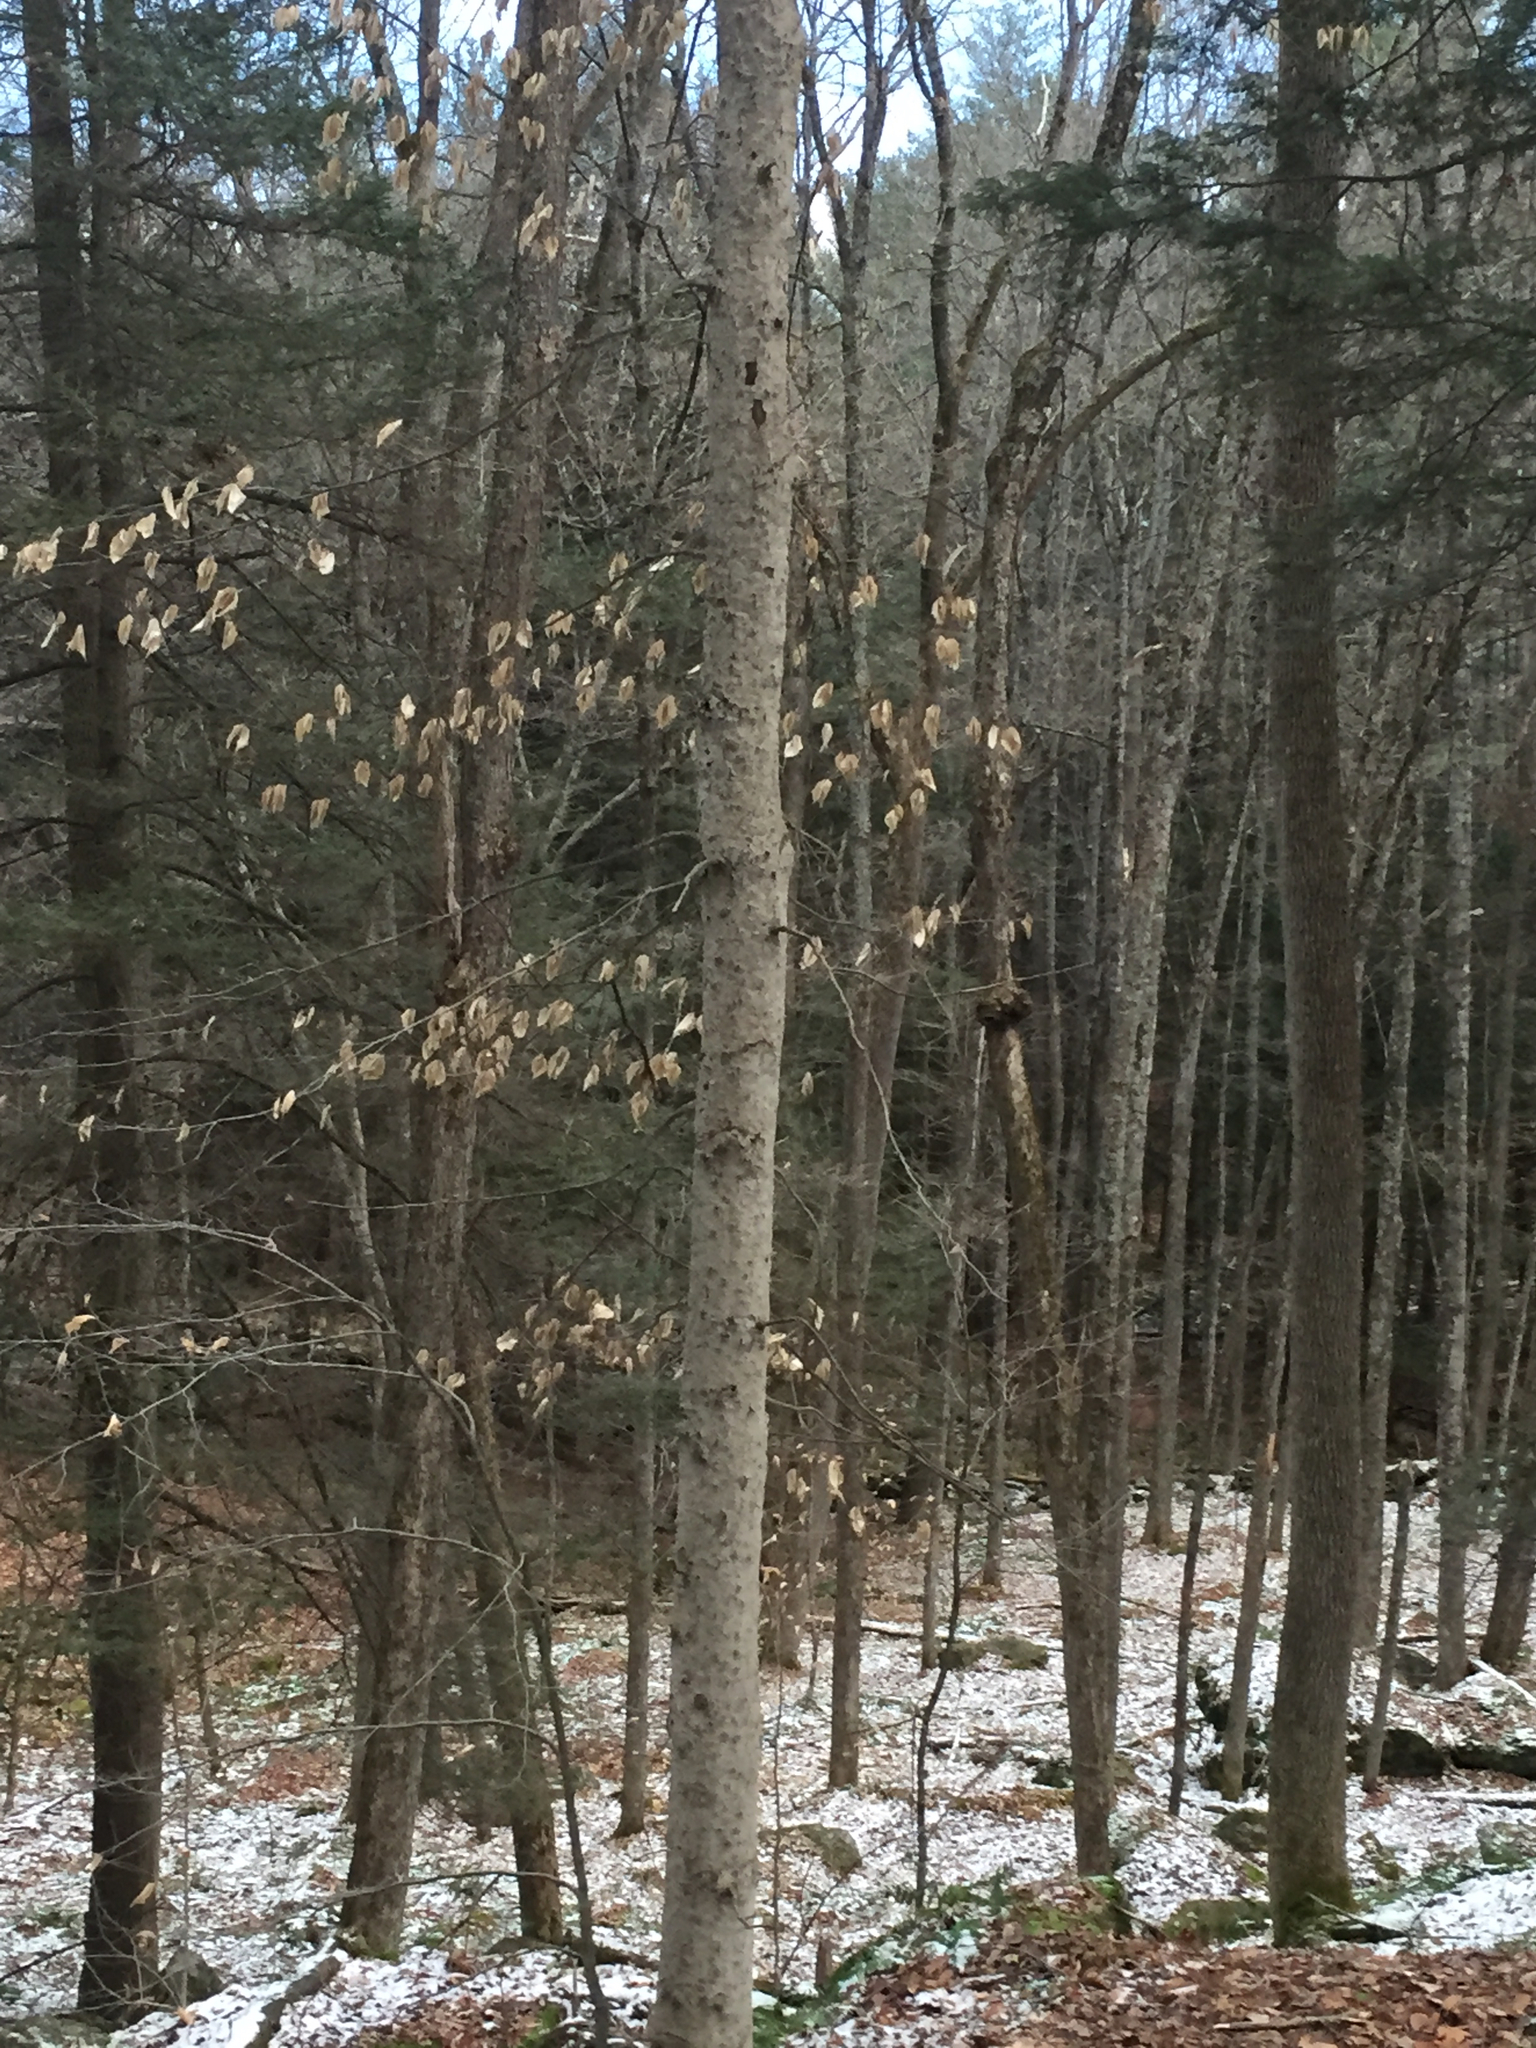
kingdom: Plantae
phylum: Tracheophyta
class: Magnoliopsida
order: Fagales
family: Fagaceae
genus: Fagus
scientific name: Fagus grandifolia
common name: American beech
